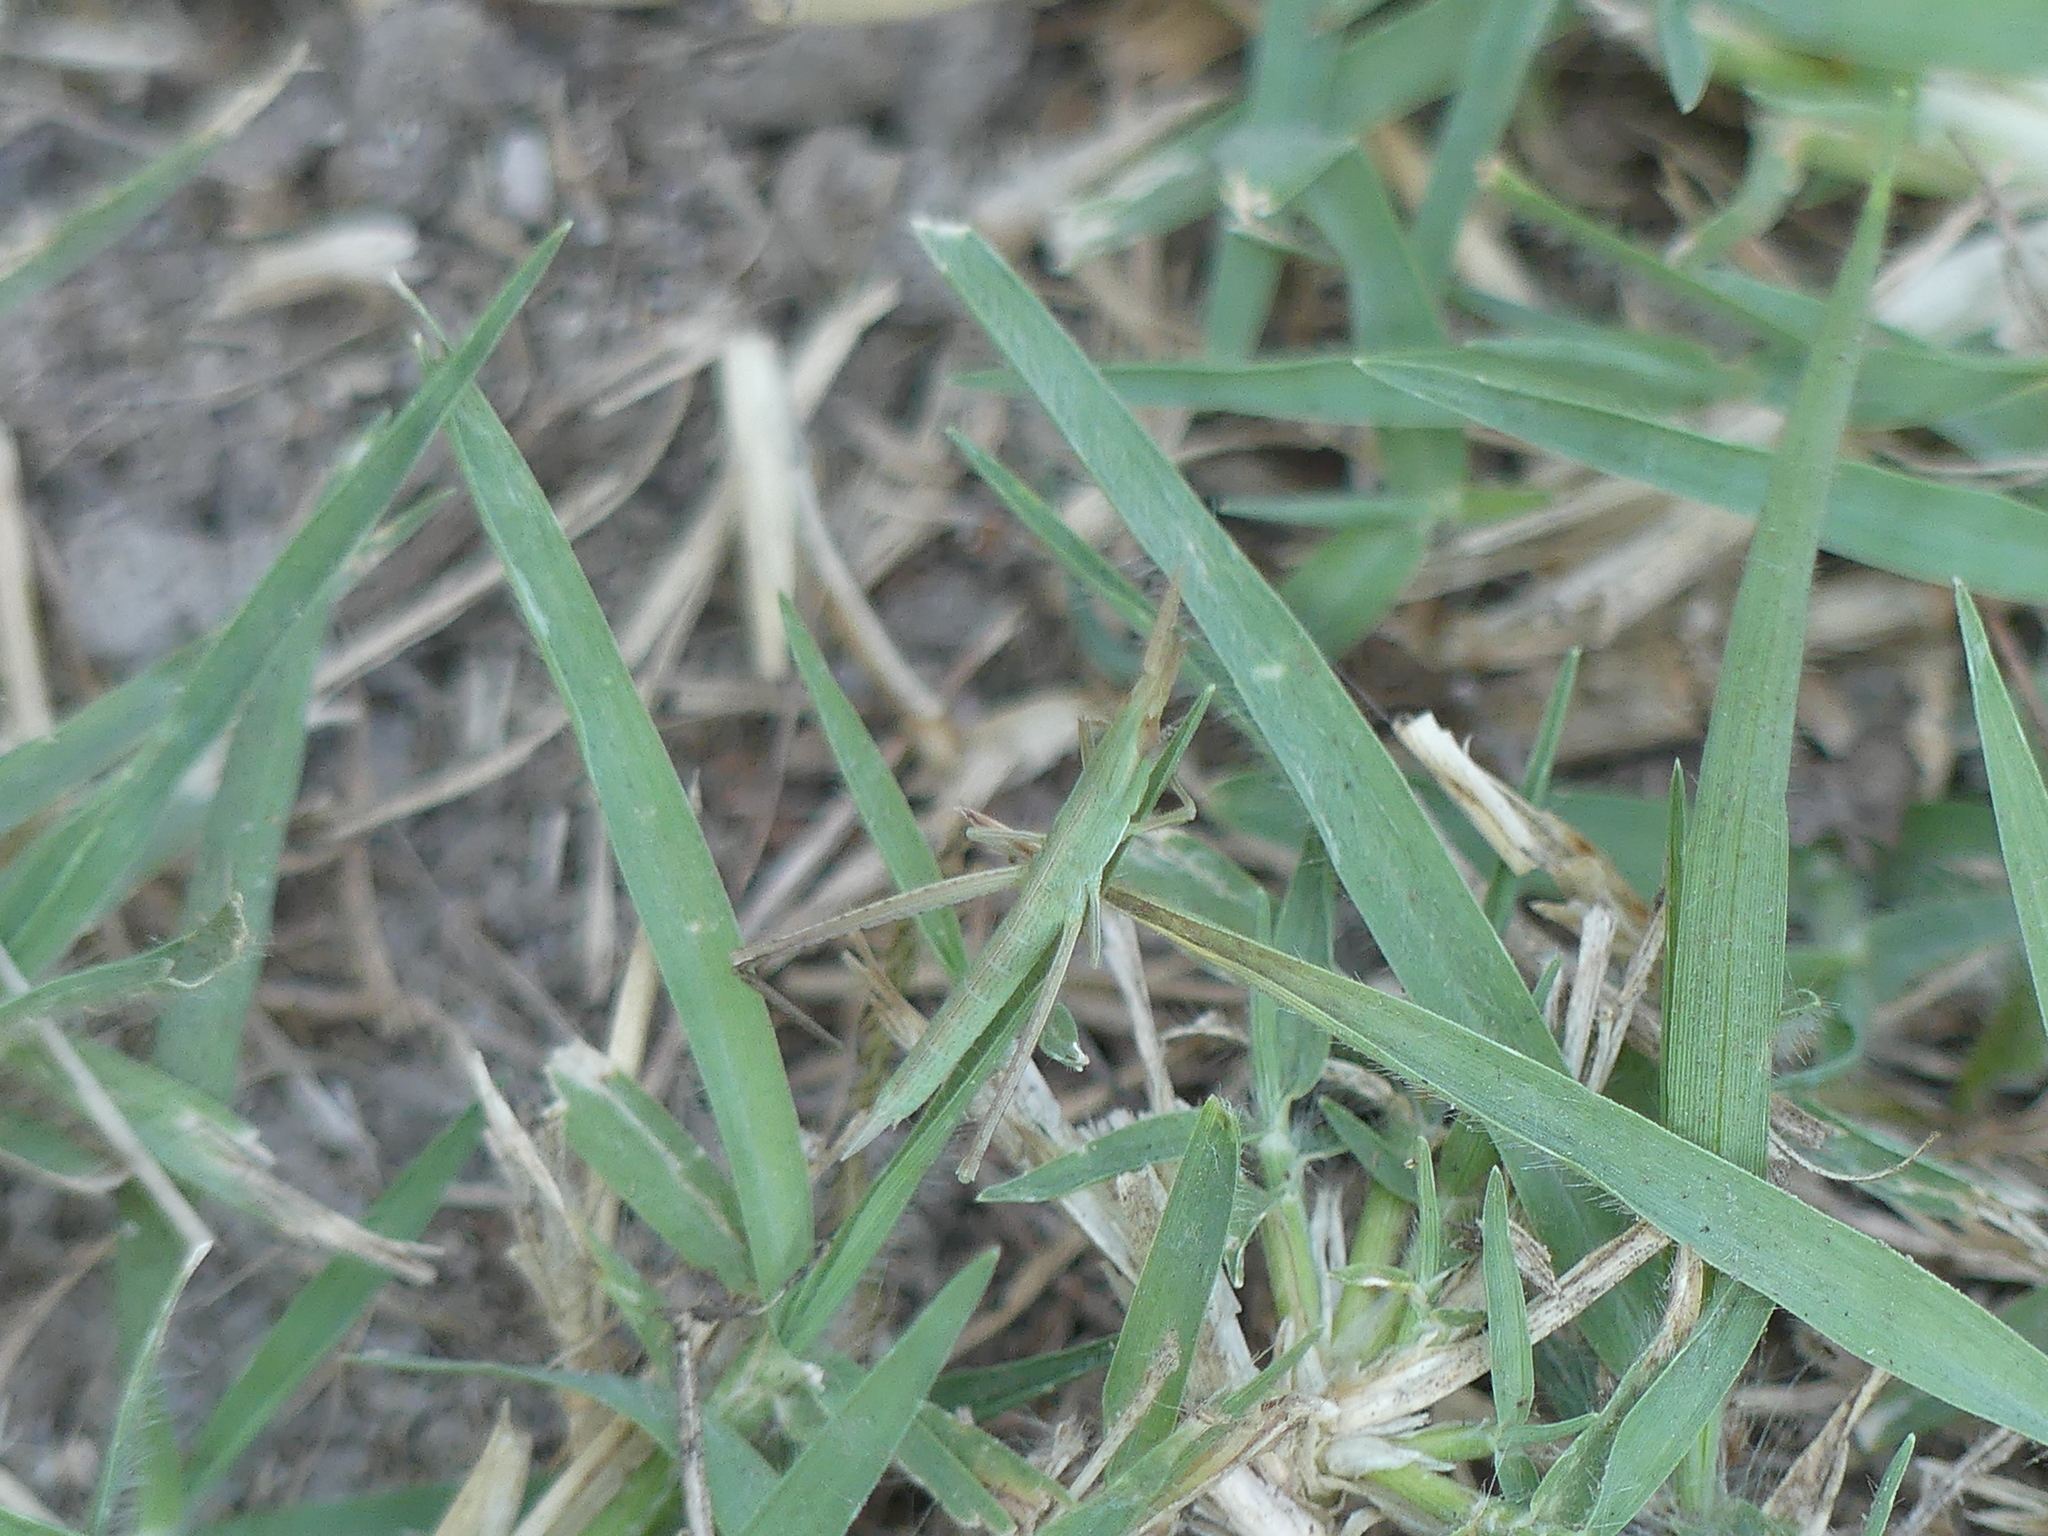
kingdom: Animalia
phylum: Arthropoda
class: Insecta
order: Orthoptera
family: Acrididae
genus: Acrida
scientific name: Acrida ungarica
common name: Common cone-headed grasshopper
